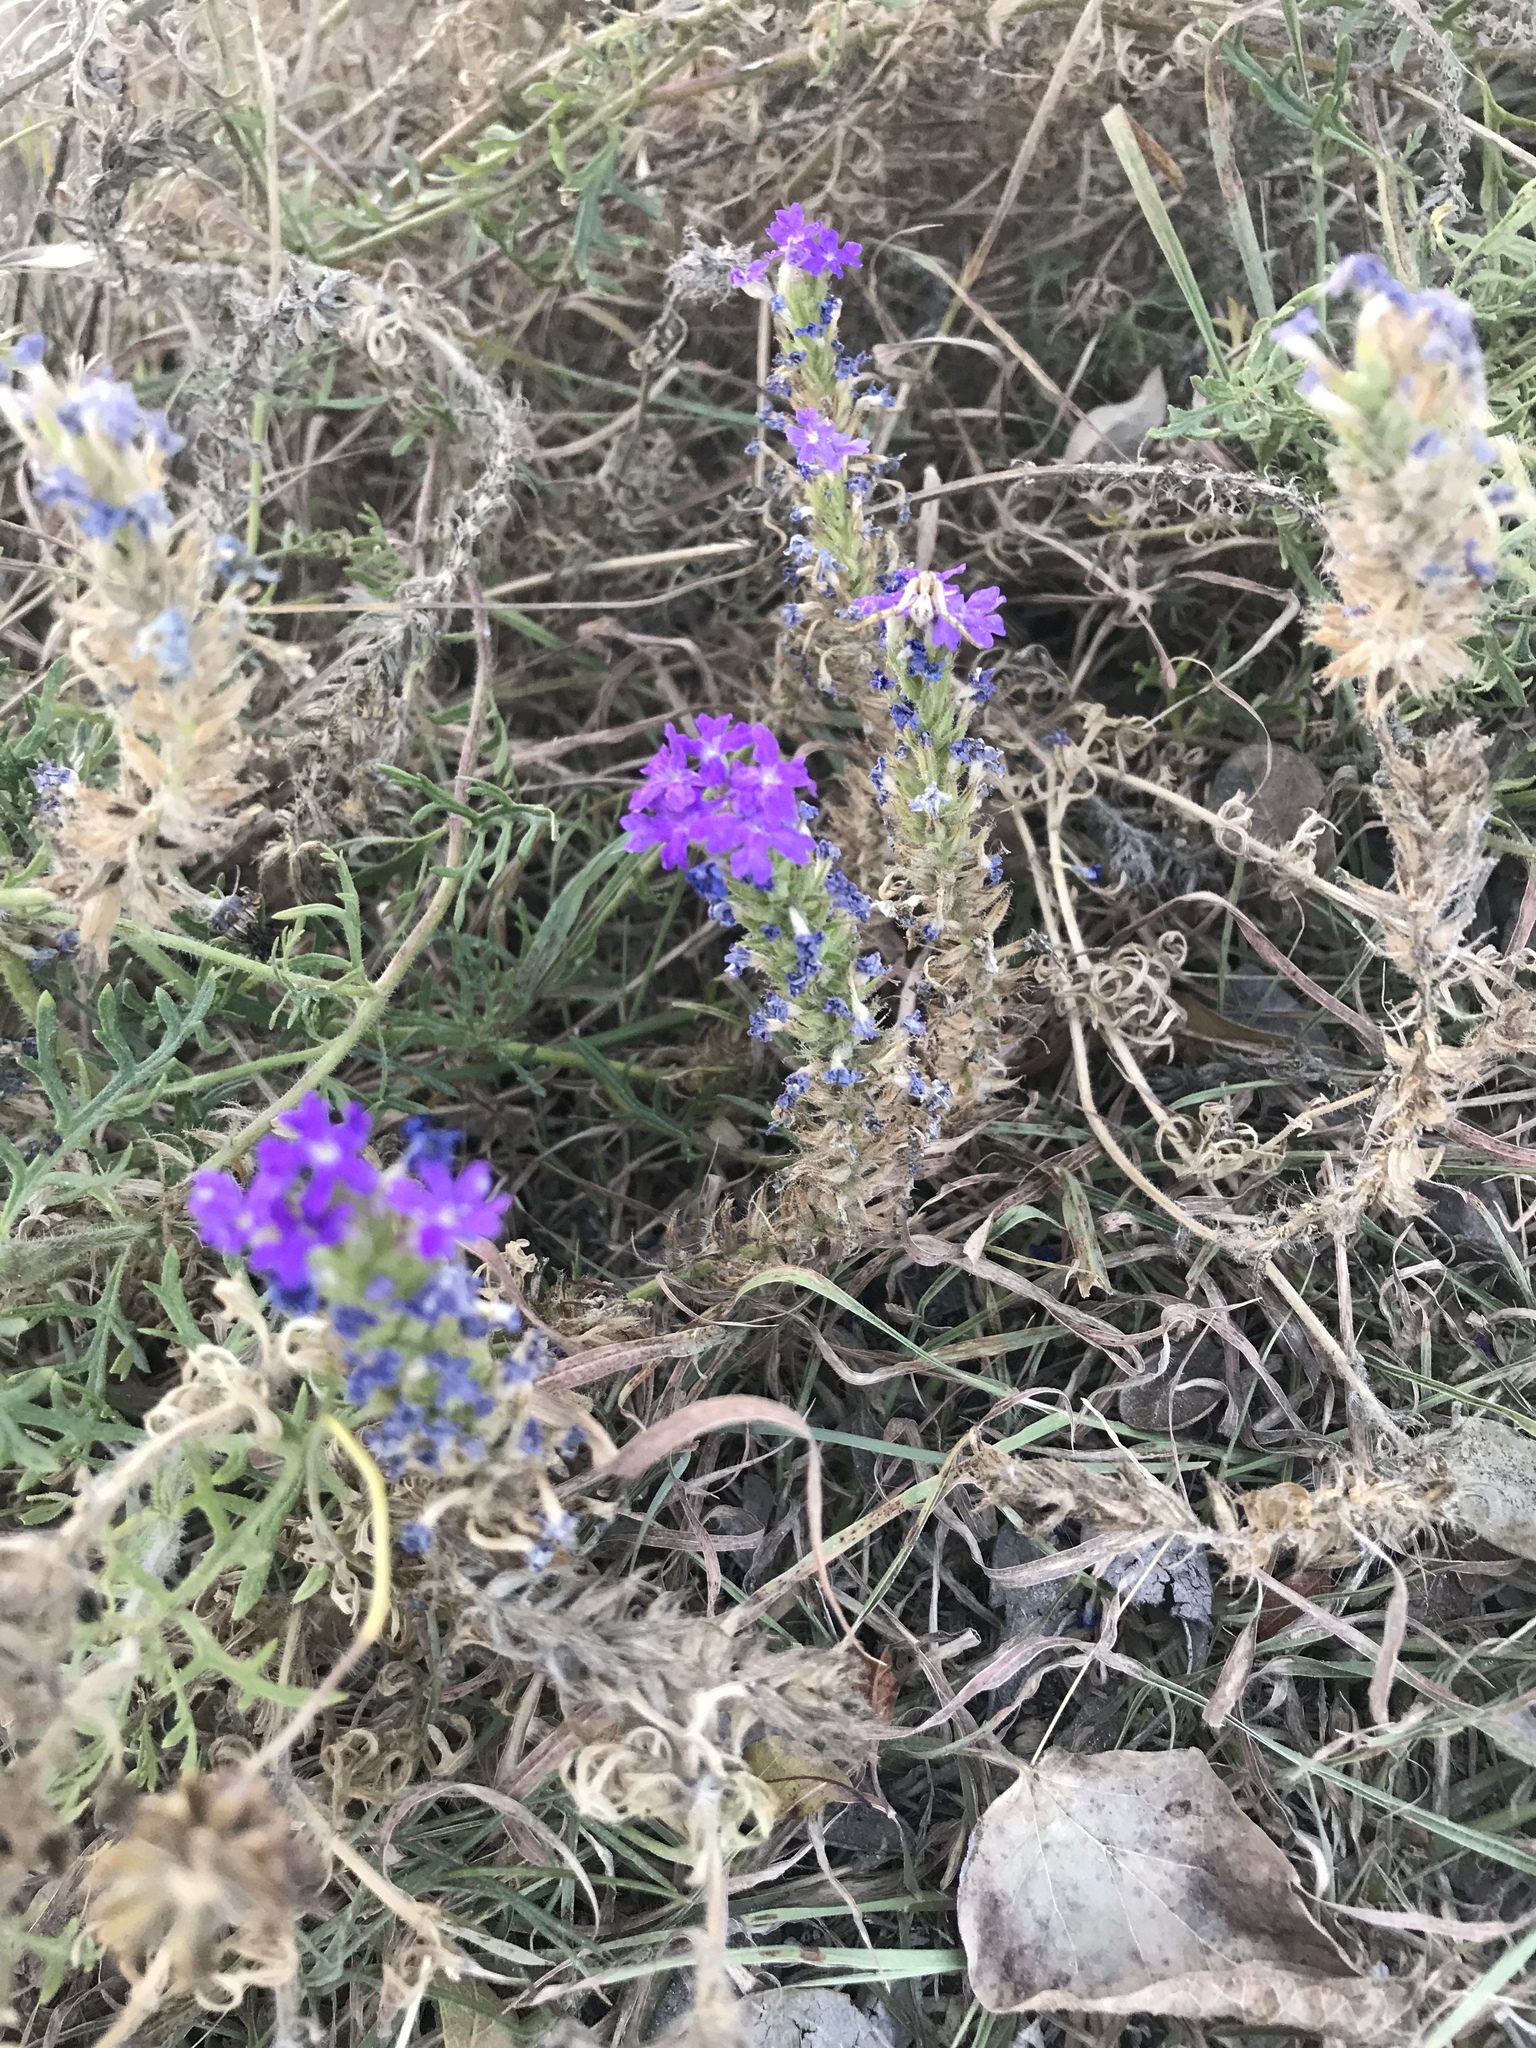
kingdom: Plantae
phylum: Tracheophyta
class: Magnoliopsida
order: Lamiales
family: Verbenaceae
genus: Verbena
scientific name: Verbena bipinnatifida
